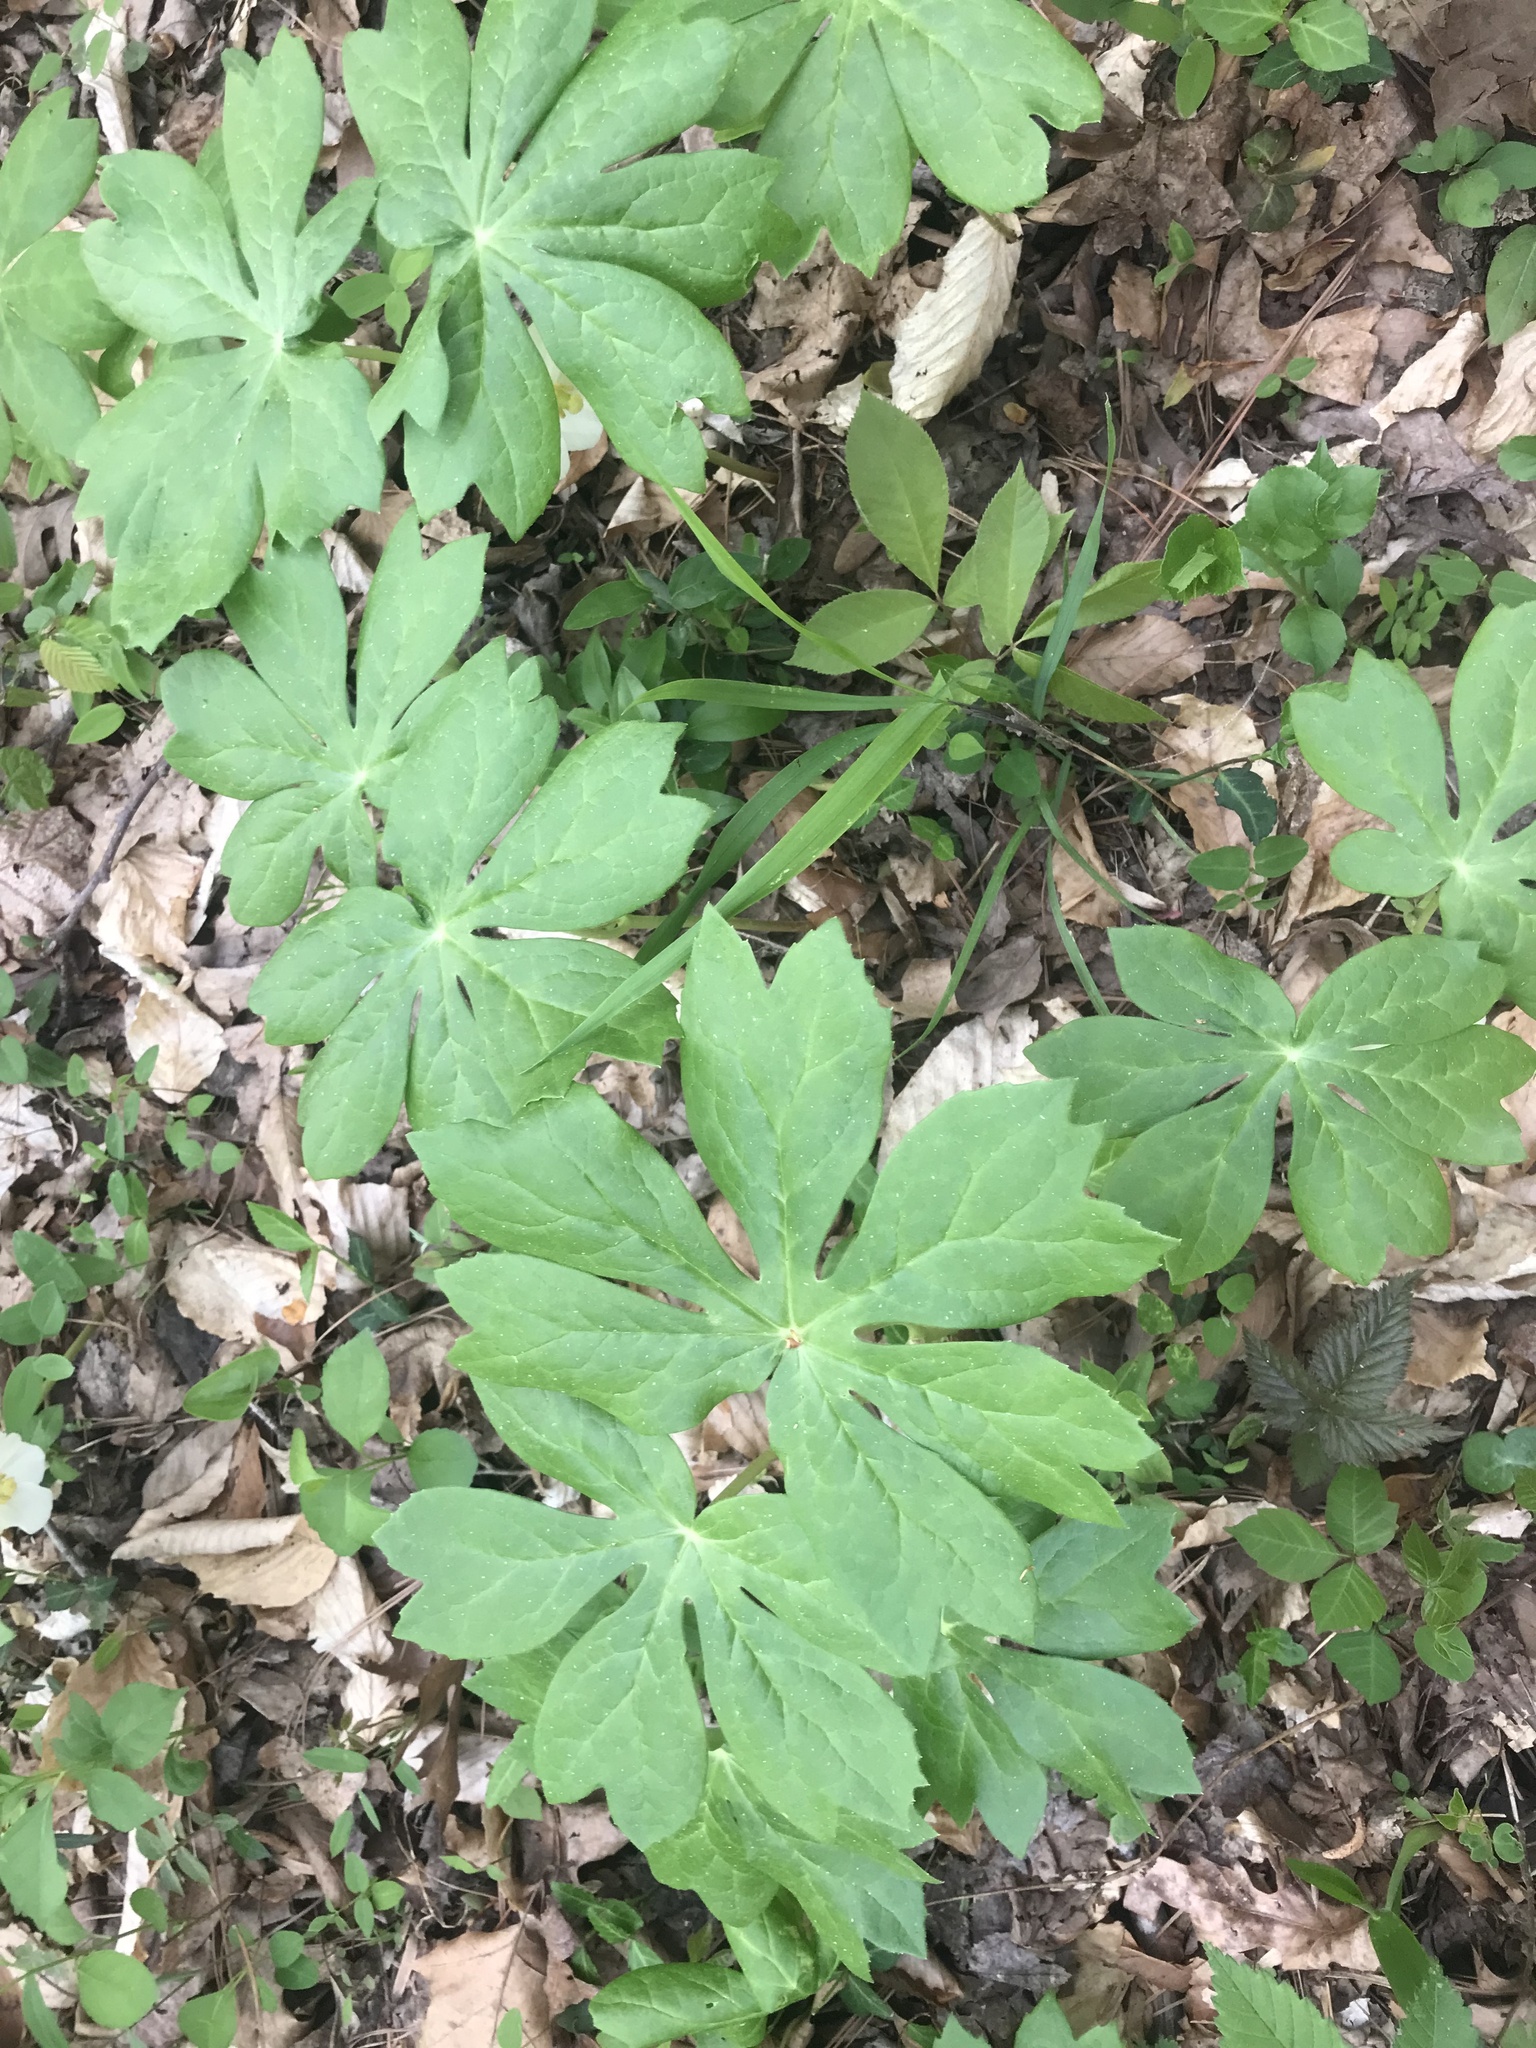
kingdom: Plantae
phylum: Tracheophyta
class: Magnoliopsida
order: Ranunculales
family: Berberidaceae
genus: Podophyllum
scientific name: Podophyllum peltatum
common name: Wild mandrake
